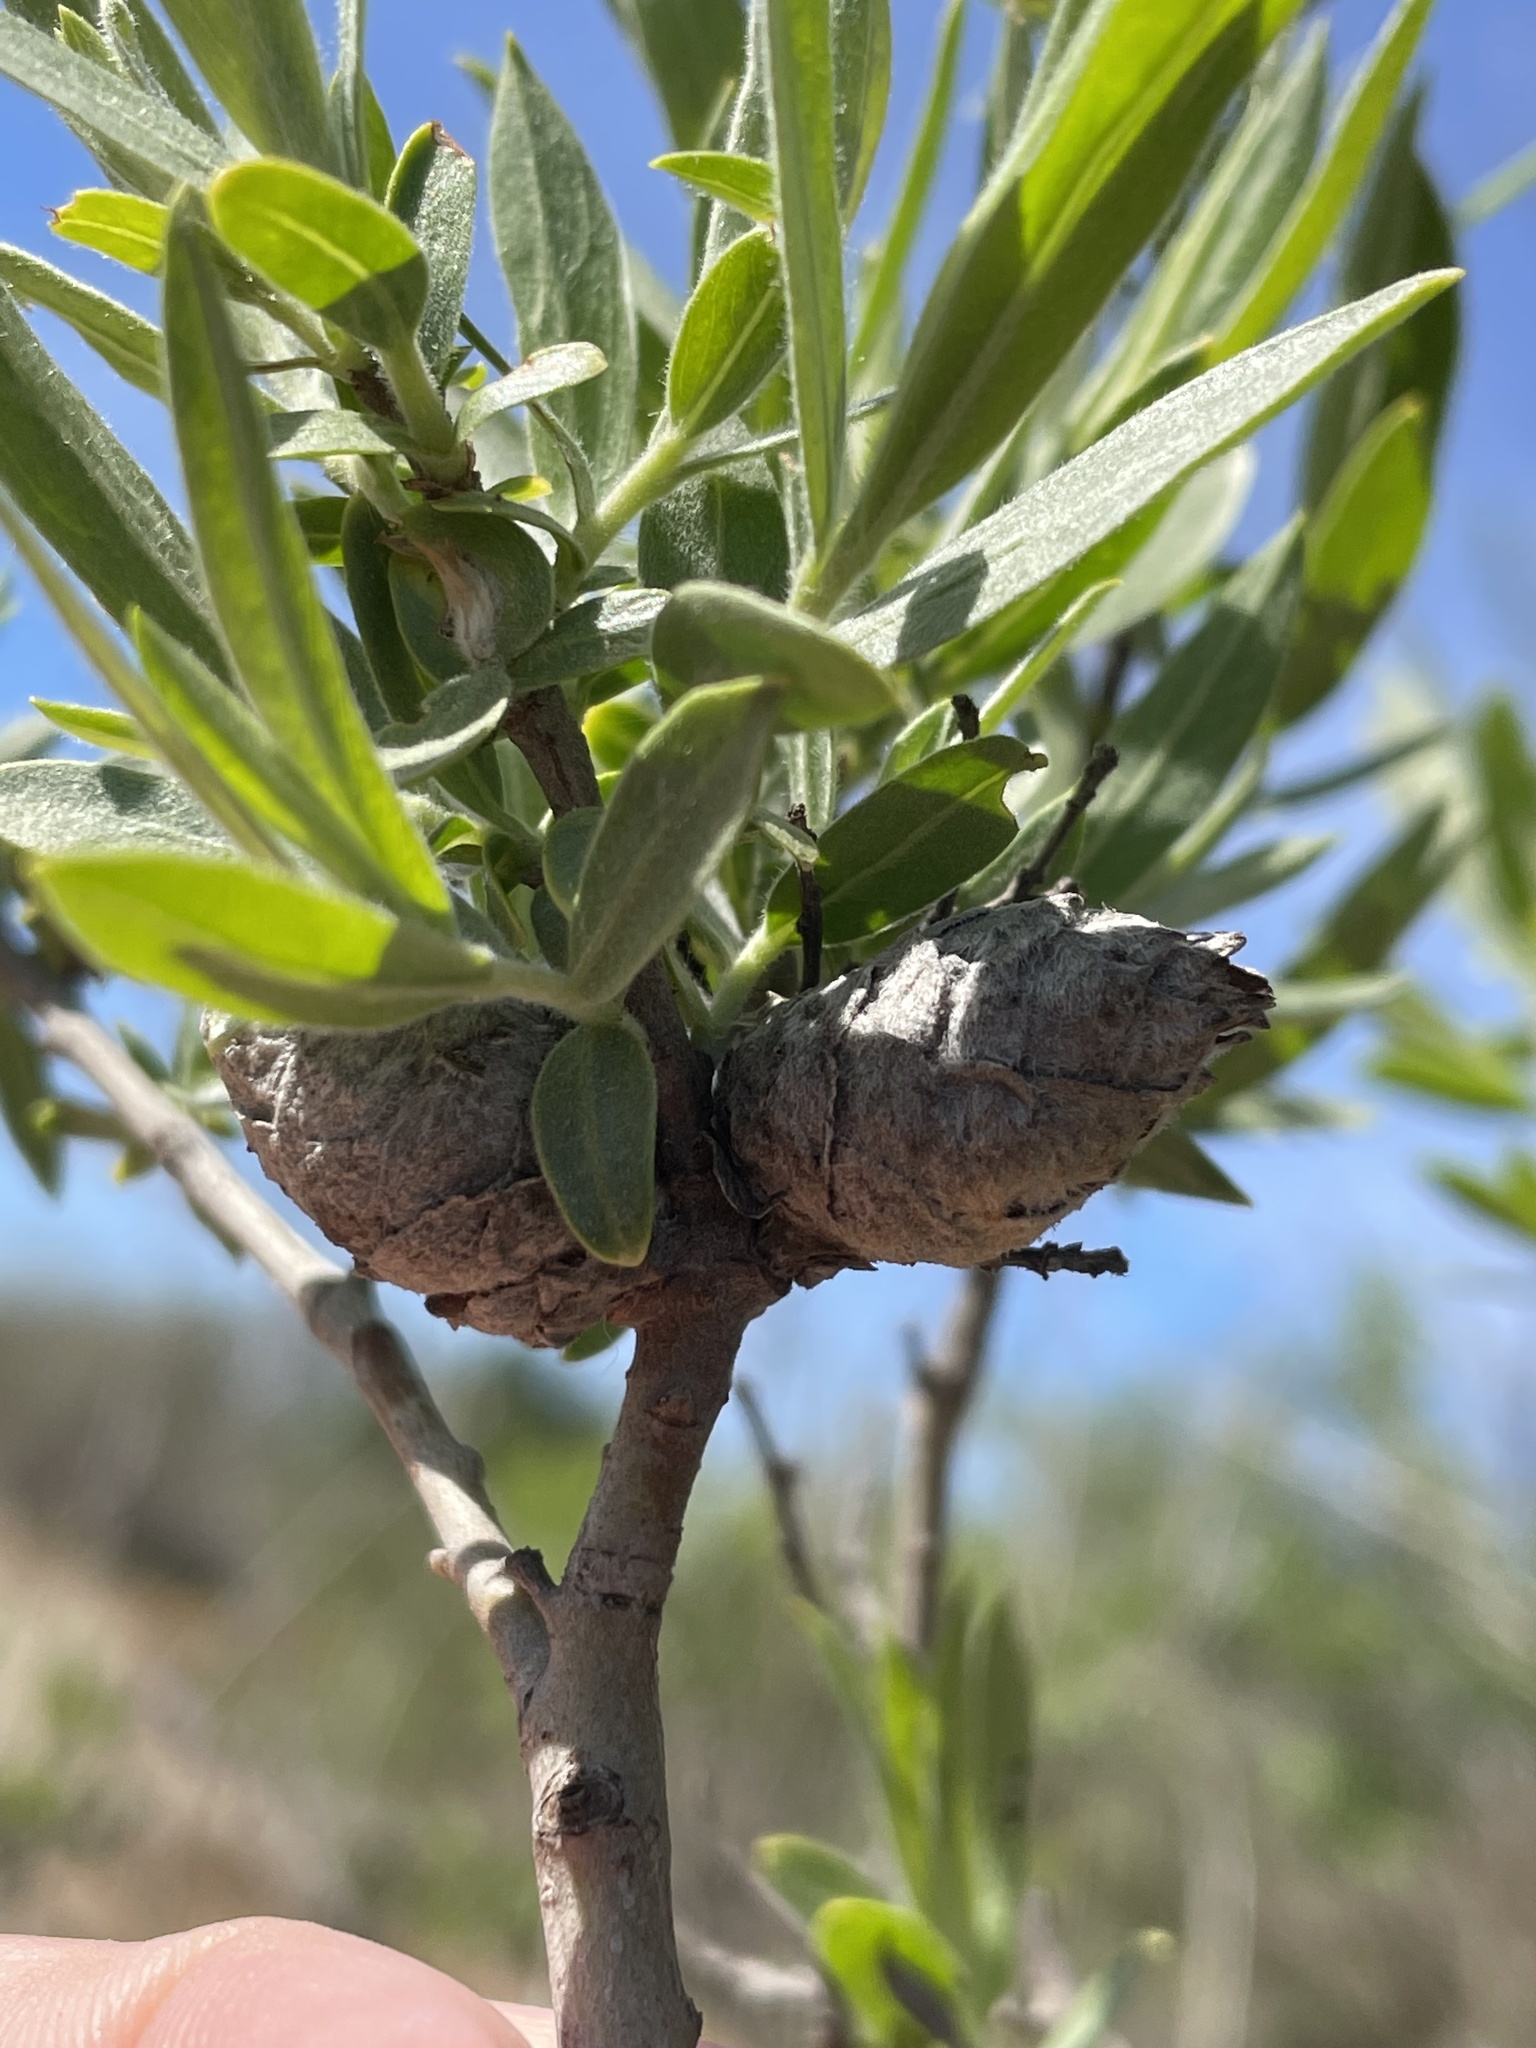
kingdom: Animalia
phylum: Arthropoda
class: Insecta
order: Diptera
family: Cecidomyiidae
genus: Rabdophaga
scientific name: Rabdophaga strobiloides
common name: Willow pinecone gall midge
